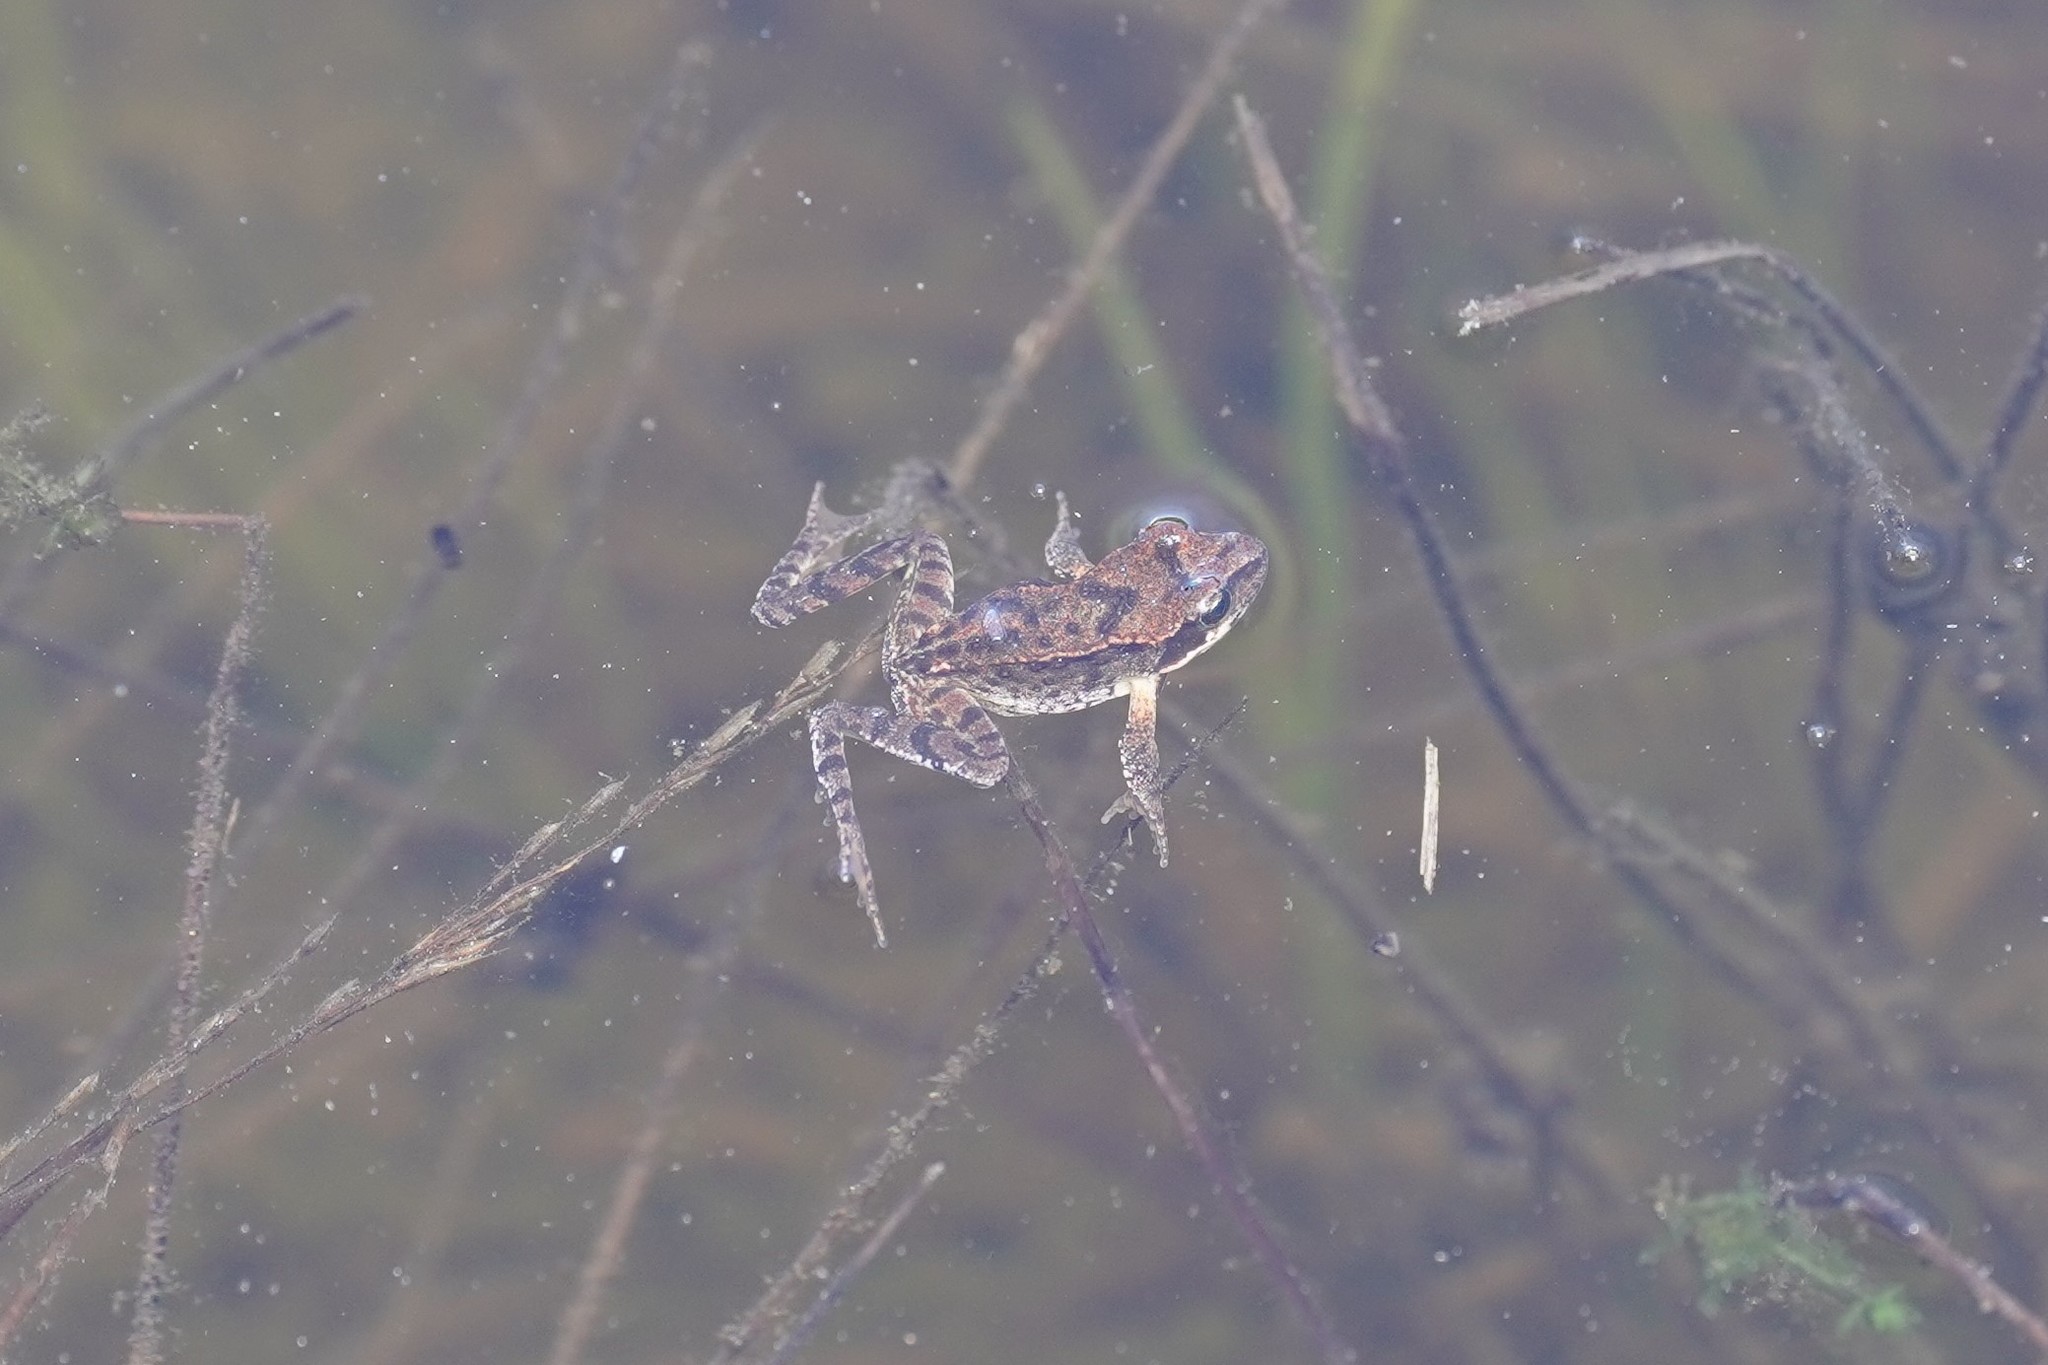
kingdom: Animalia
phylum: Chordata
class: Amphibia
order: Anura
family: Ranidae
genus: Rana
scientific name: Rana temporaria
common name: Common frog
